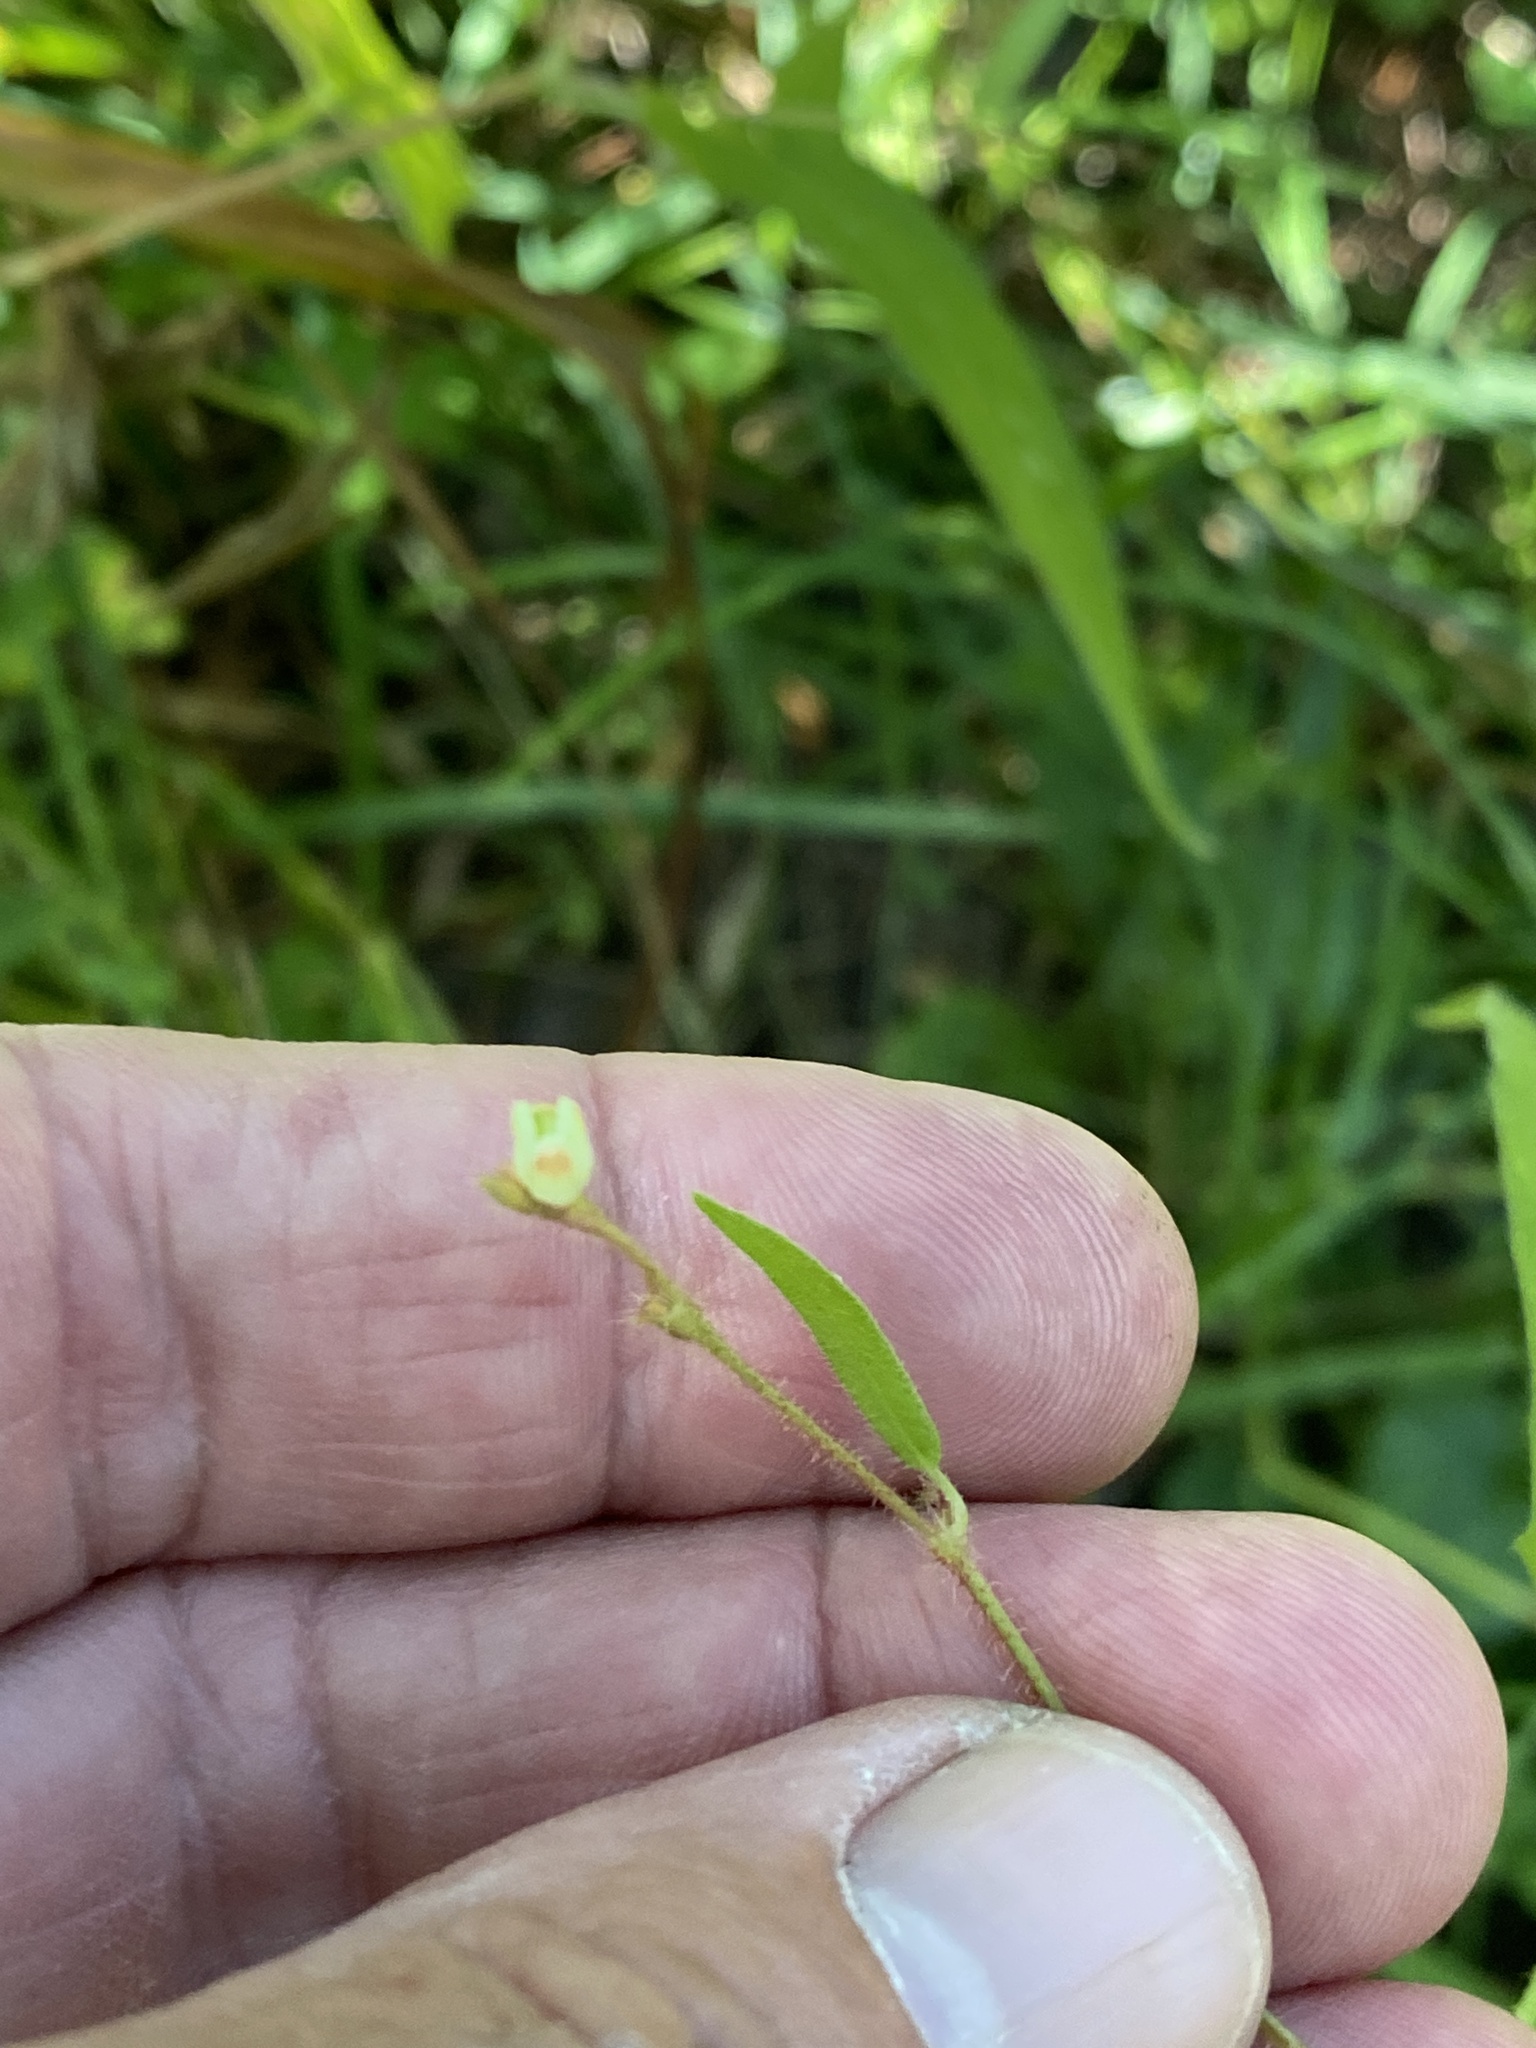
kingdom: Plantae
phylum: Tracheophyta
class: Magnoliopsida
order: Caryophyllales
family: Polygonaceae
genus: Persicaria
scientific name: Persicaria arifolia
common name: Halberd-leaved tear-thumb
